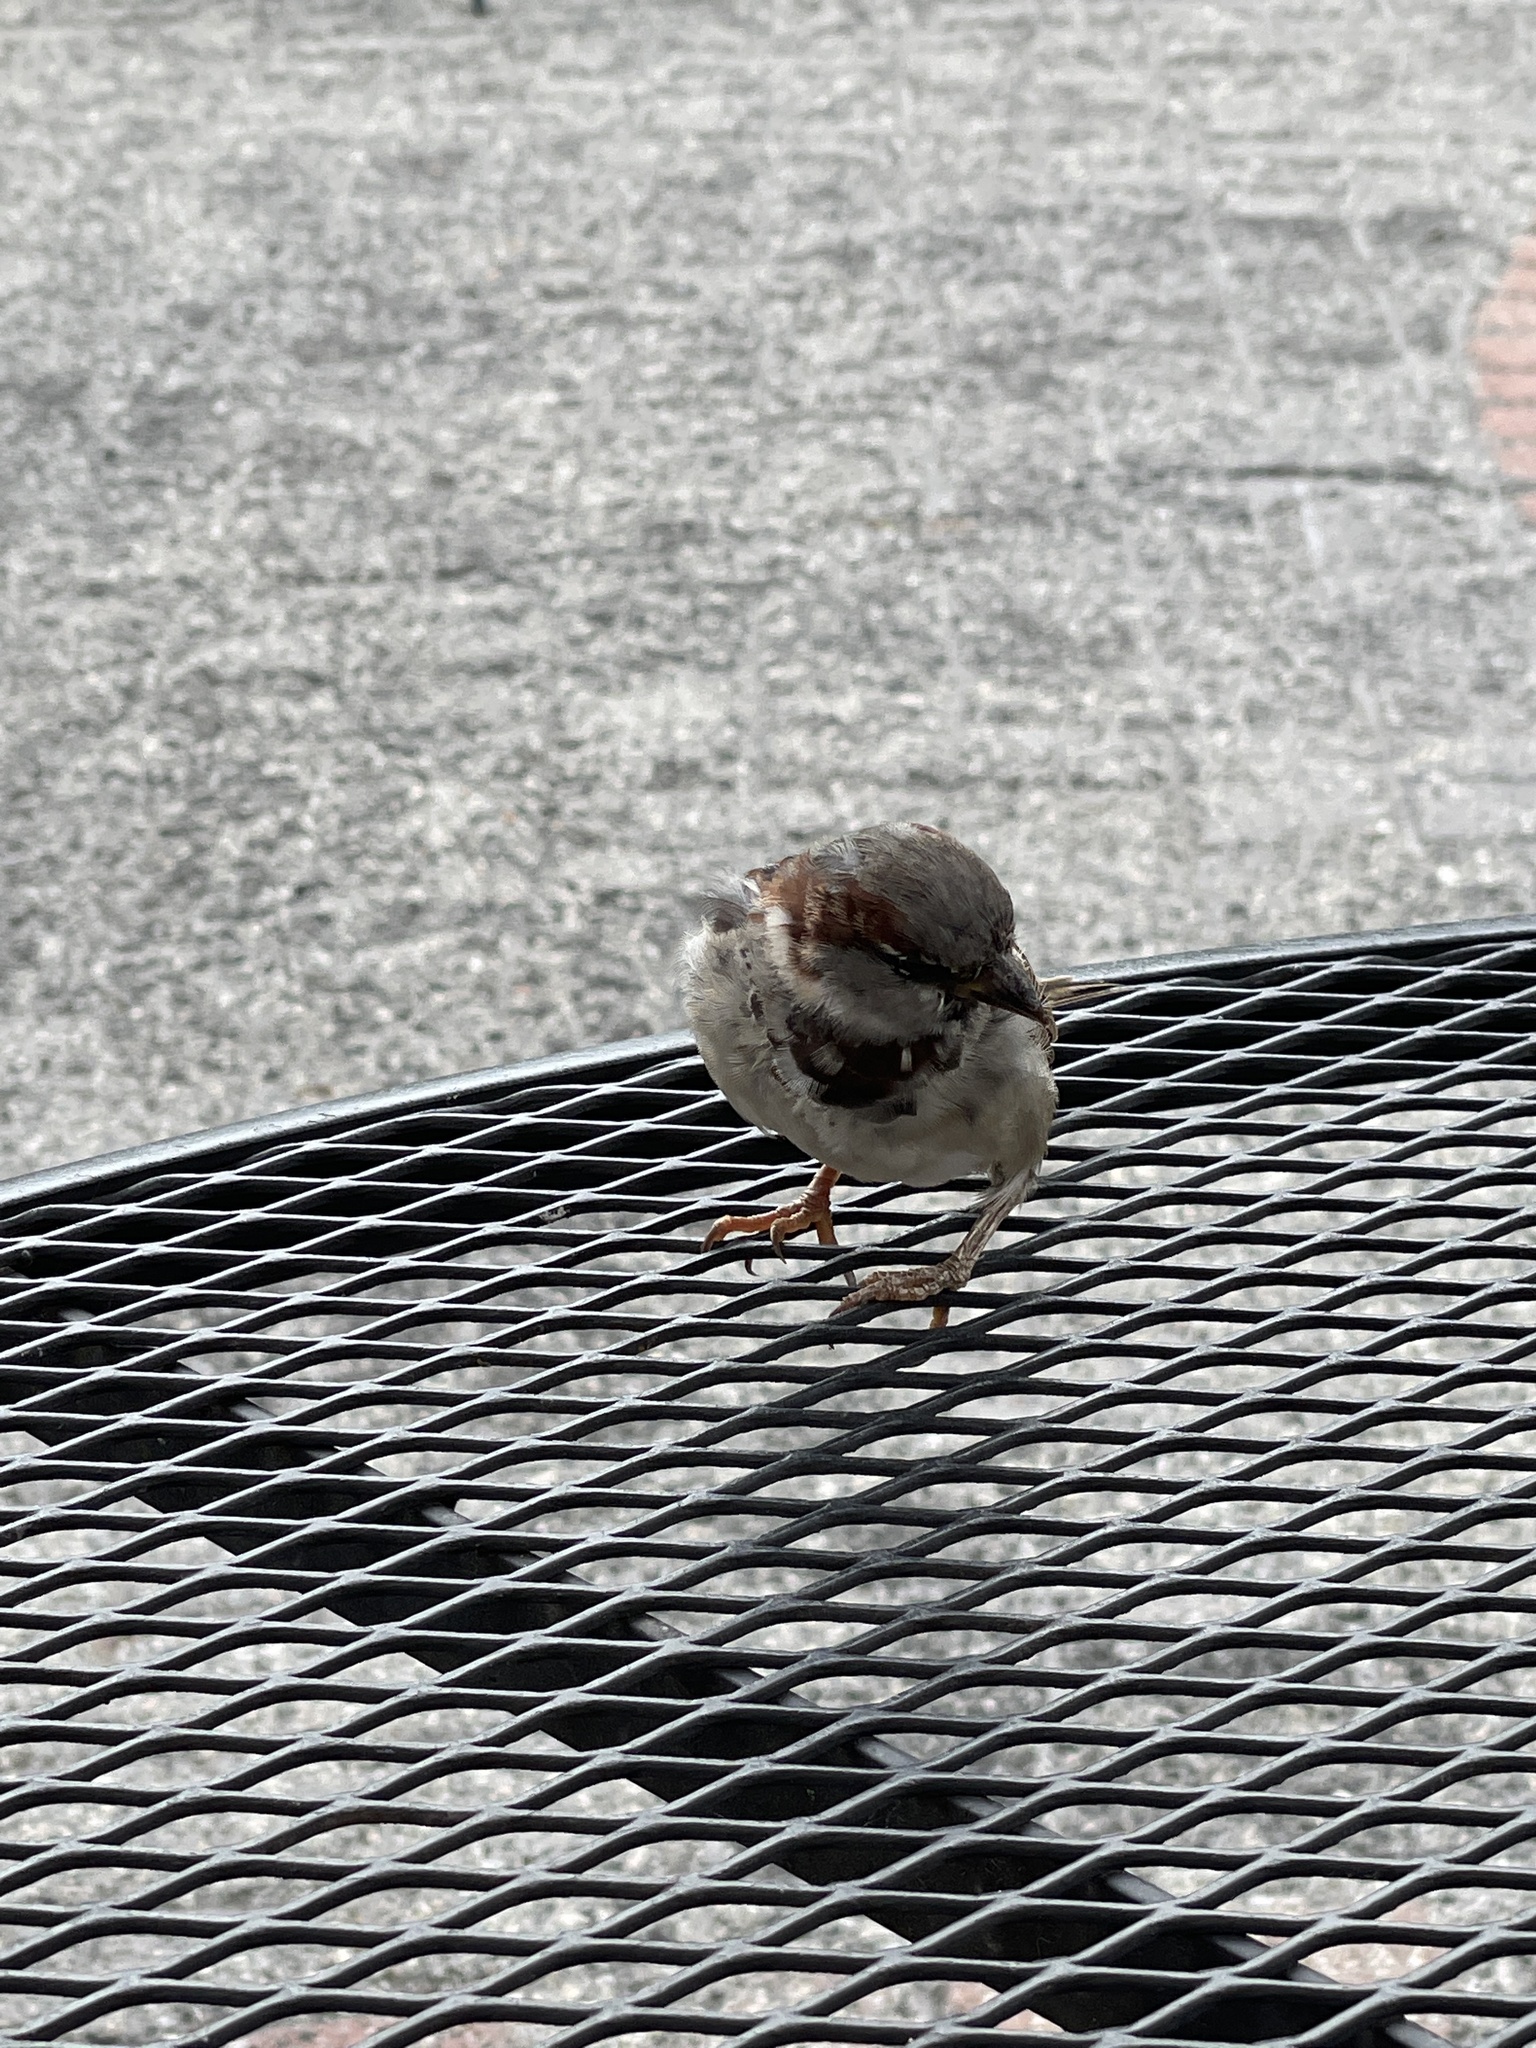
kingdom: Animalia
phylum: Chordata
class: Aves
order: Passeriformes
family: Passeridae
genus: Passer
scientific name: Passer domesticus
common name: House sparrow
